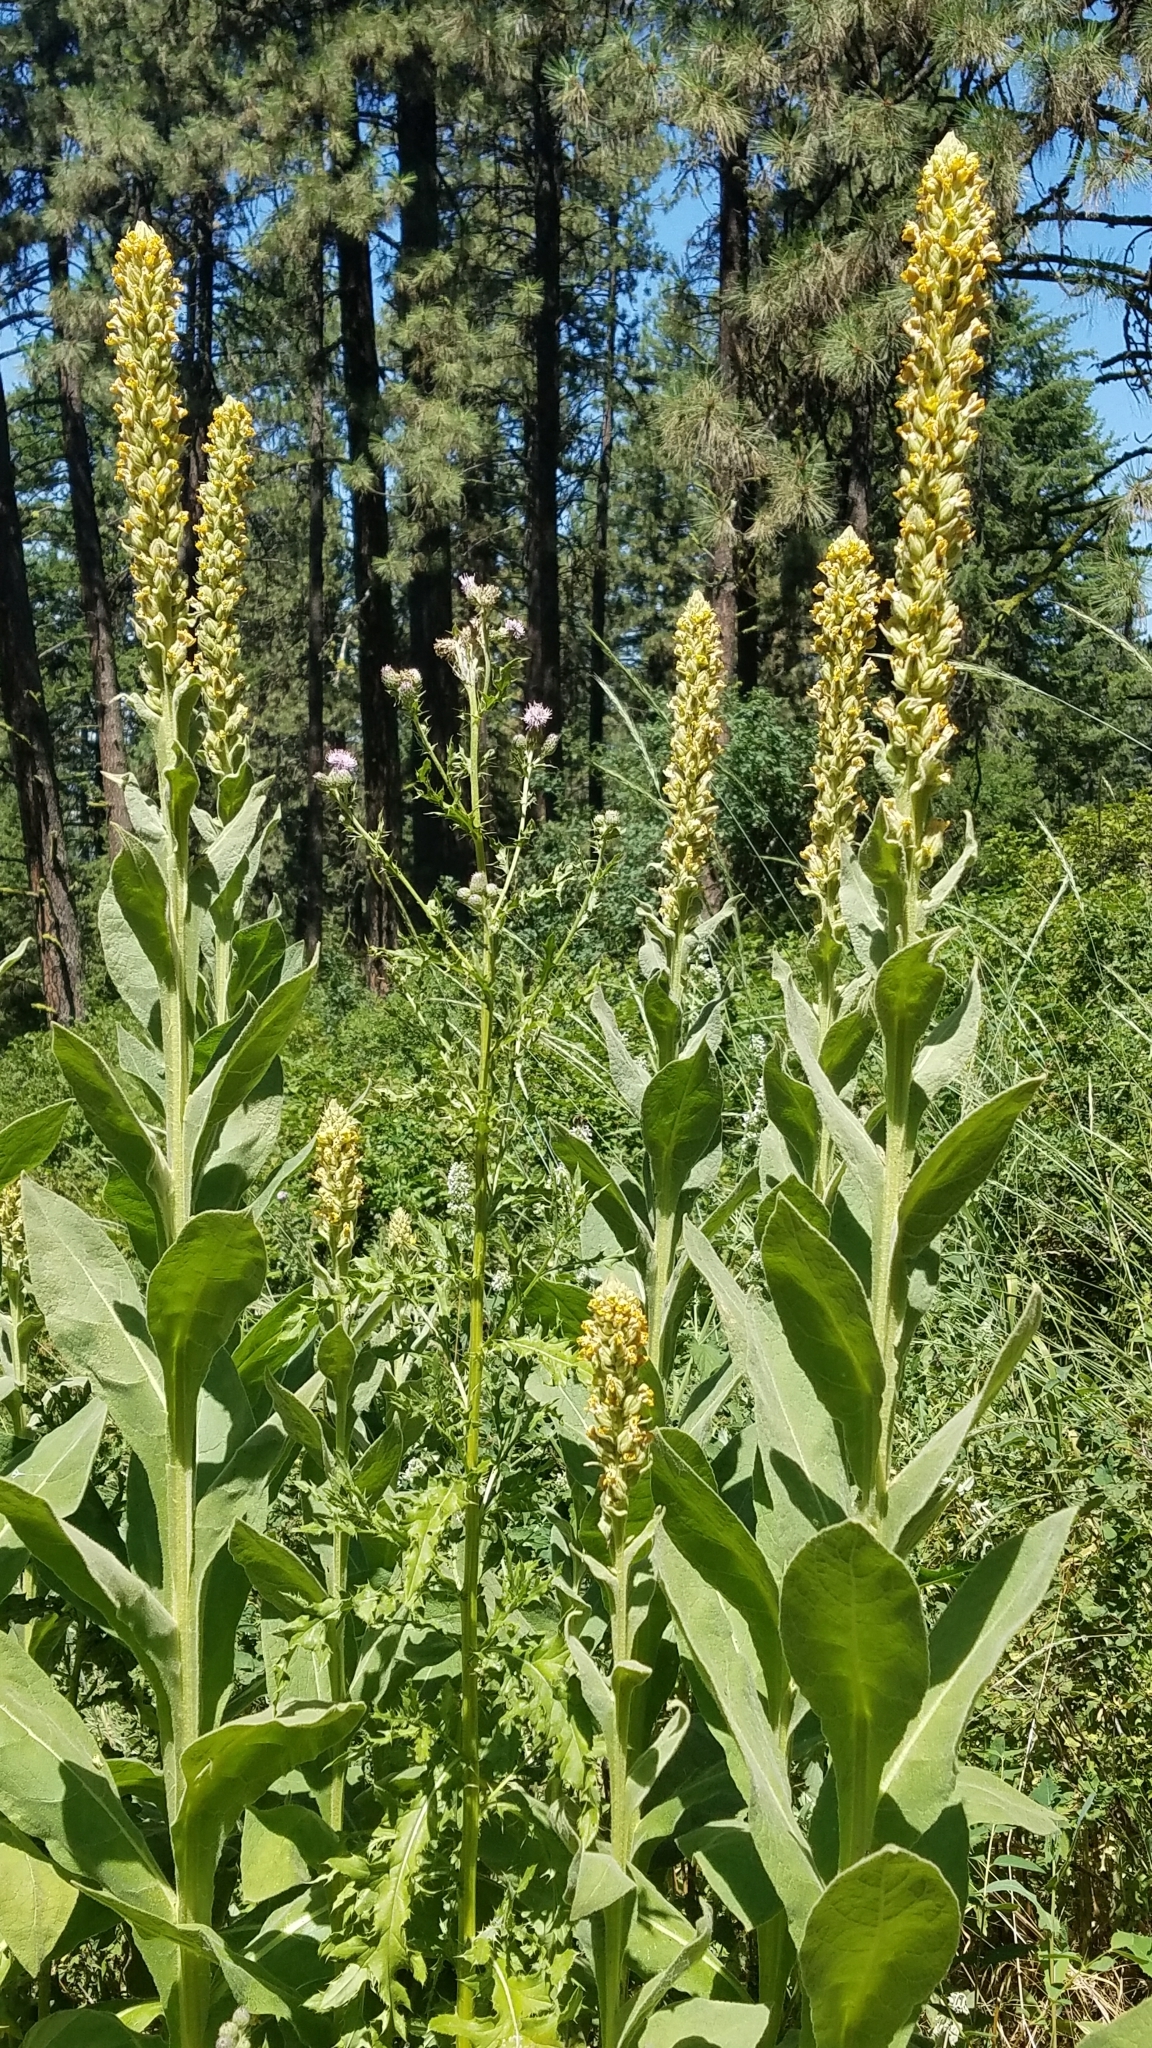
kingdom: Plantae
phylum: Tracheophyta
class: Magnoliopsida
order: Lamiales
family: Scrophulariaceae
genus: Verbascum
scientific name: Verbascum thapsus
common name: Common mullein
